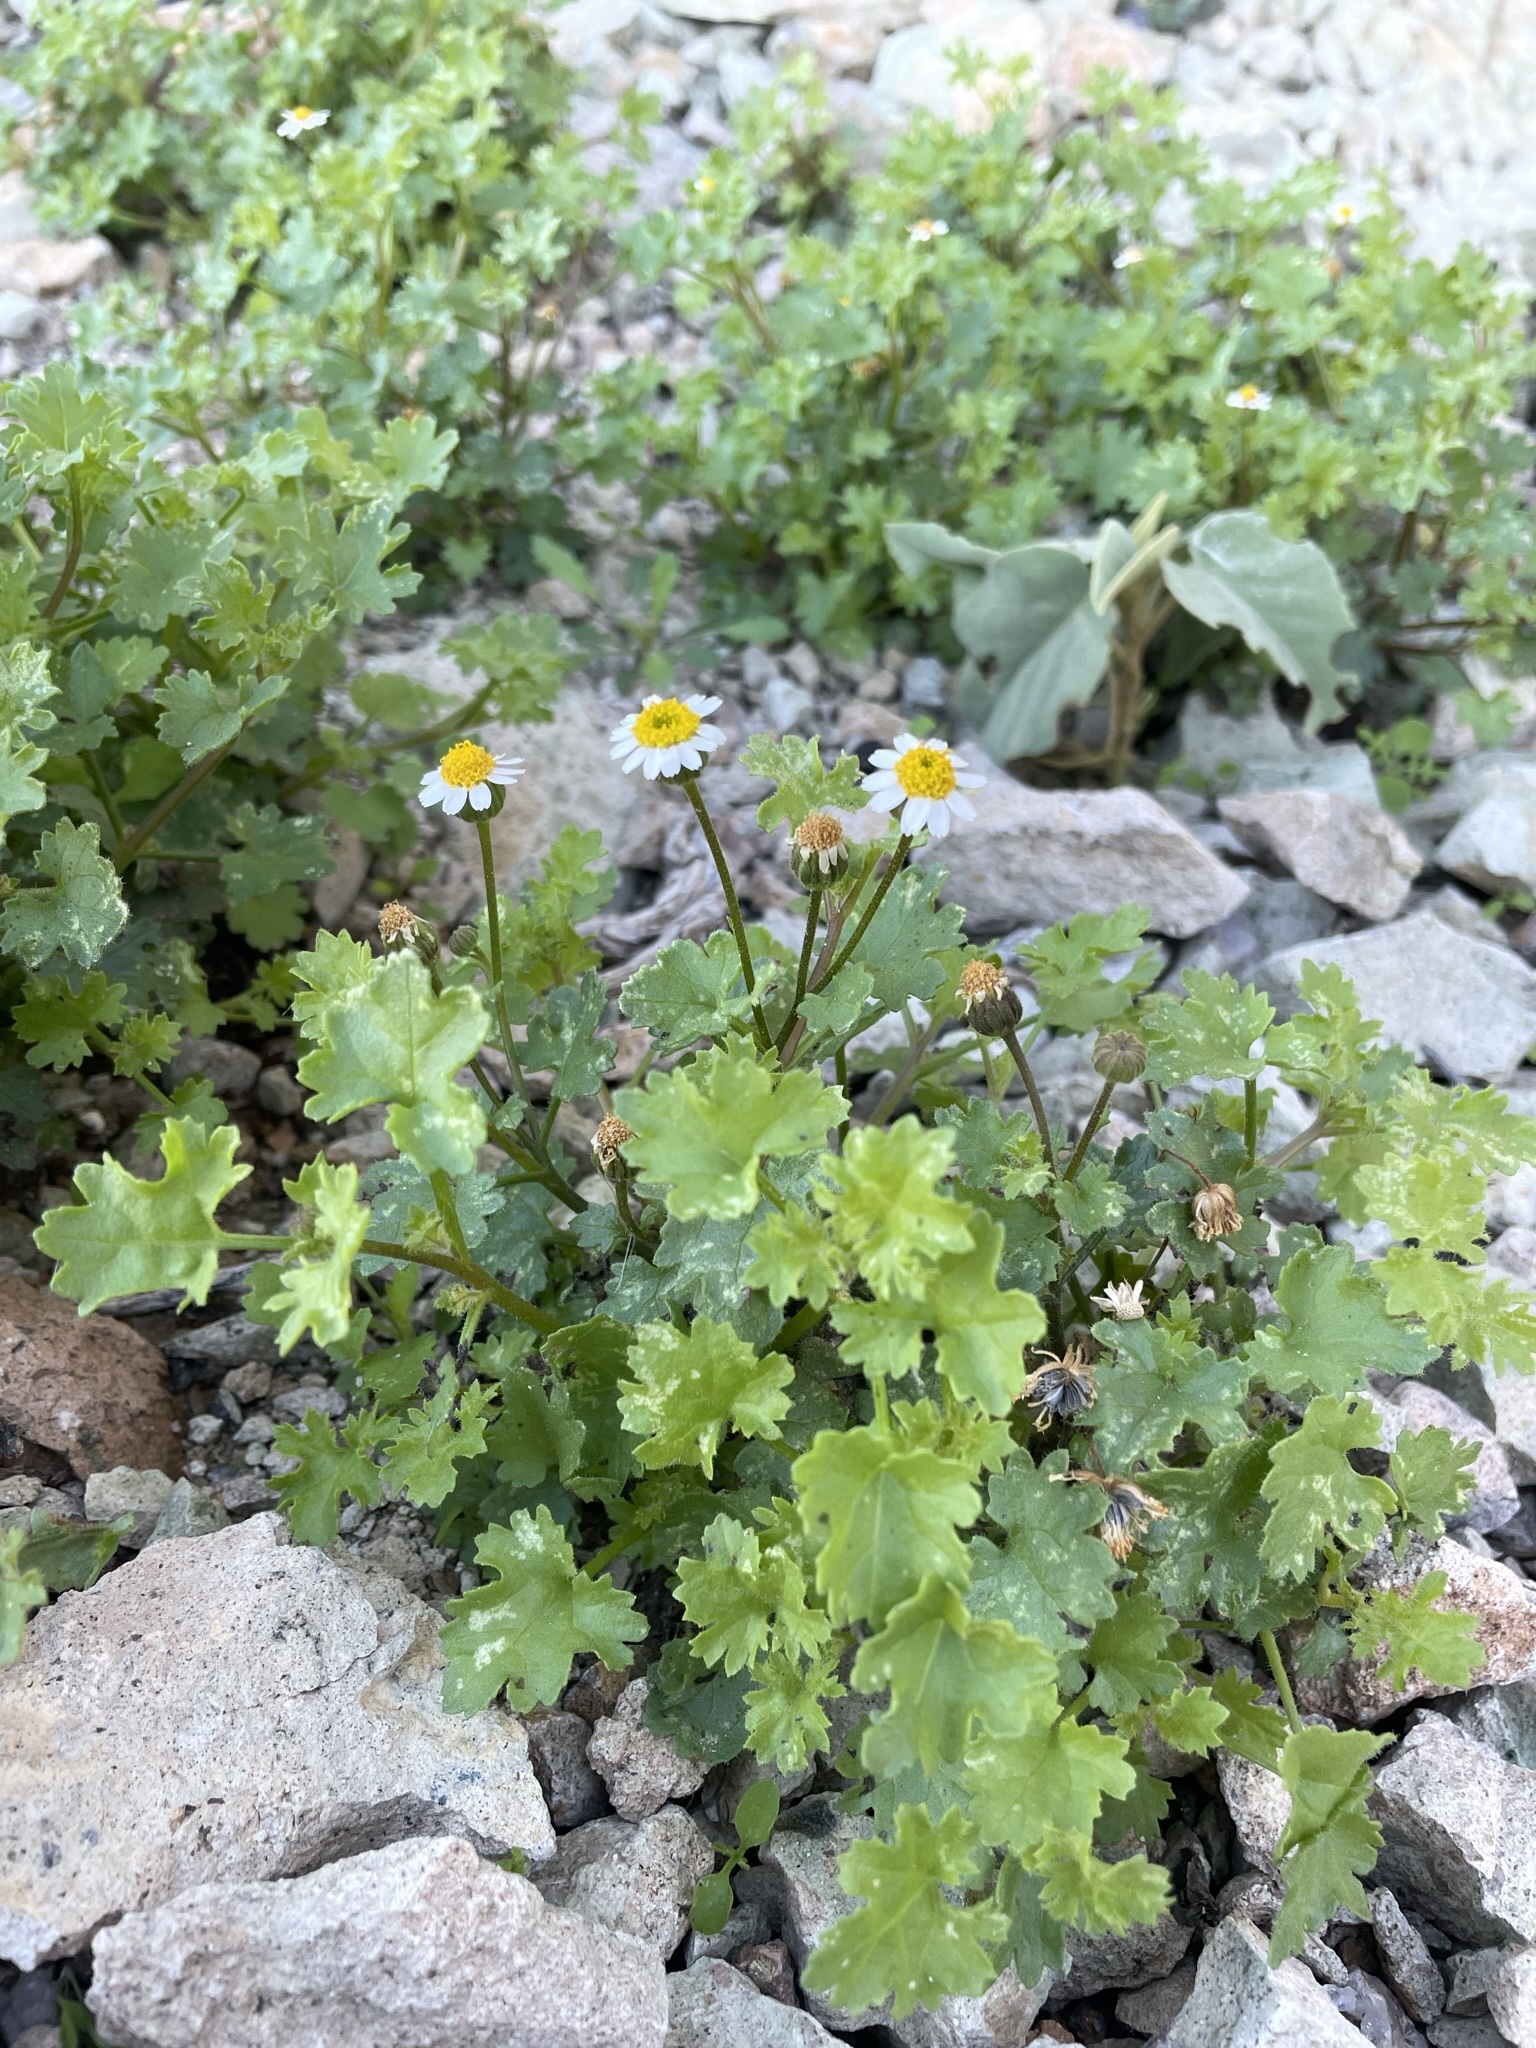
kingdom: Plantae
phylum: Tracheophyta
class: Magnoliopsida
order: Asterales
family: Asteraceae
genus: Laphamia
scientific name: Laphamia emoryi
